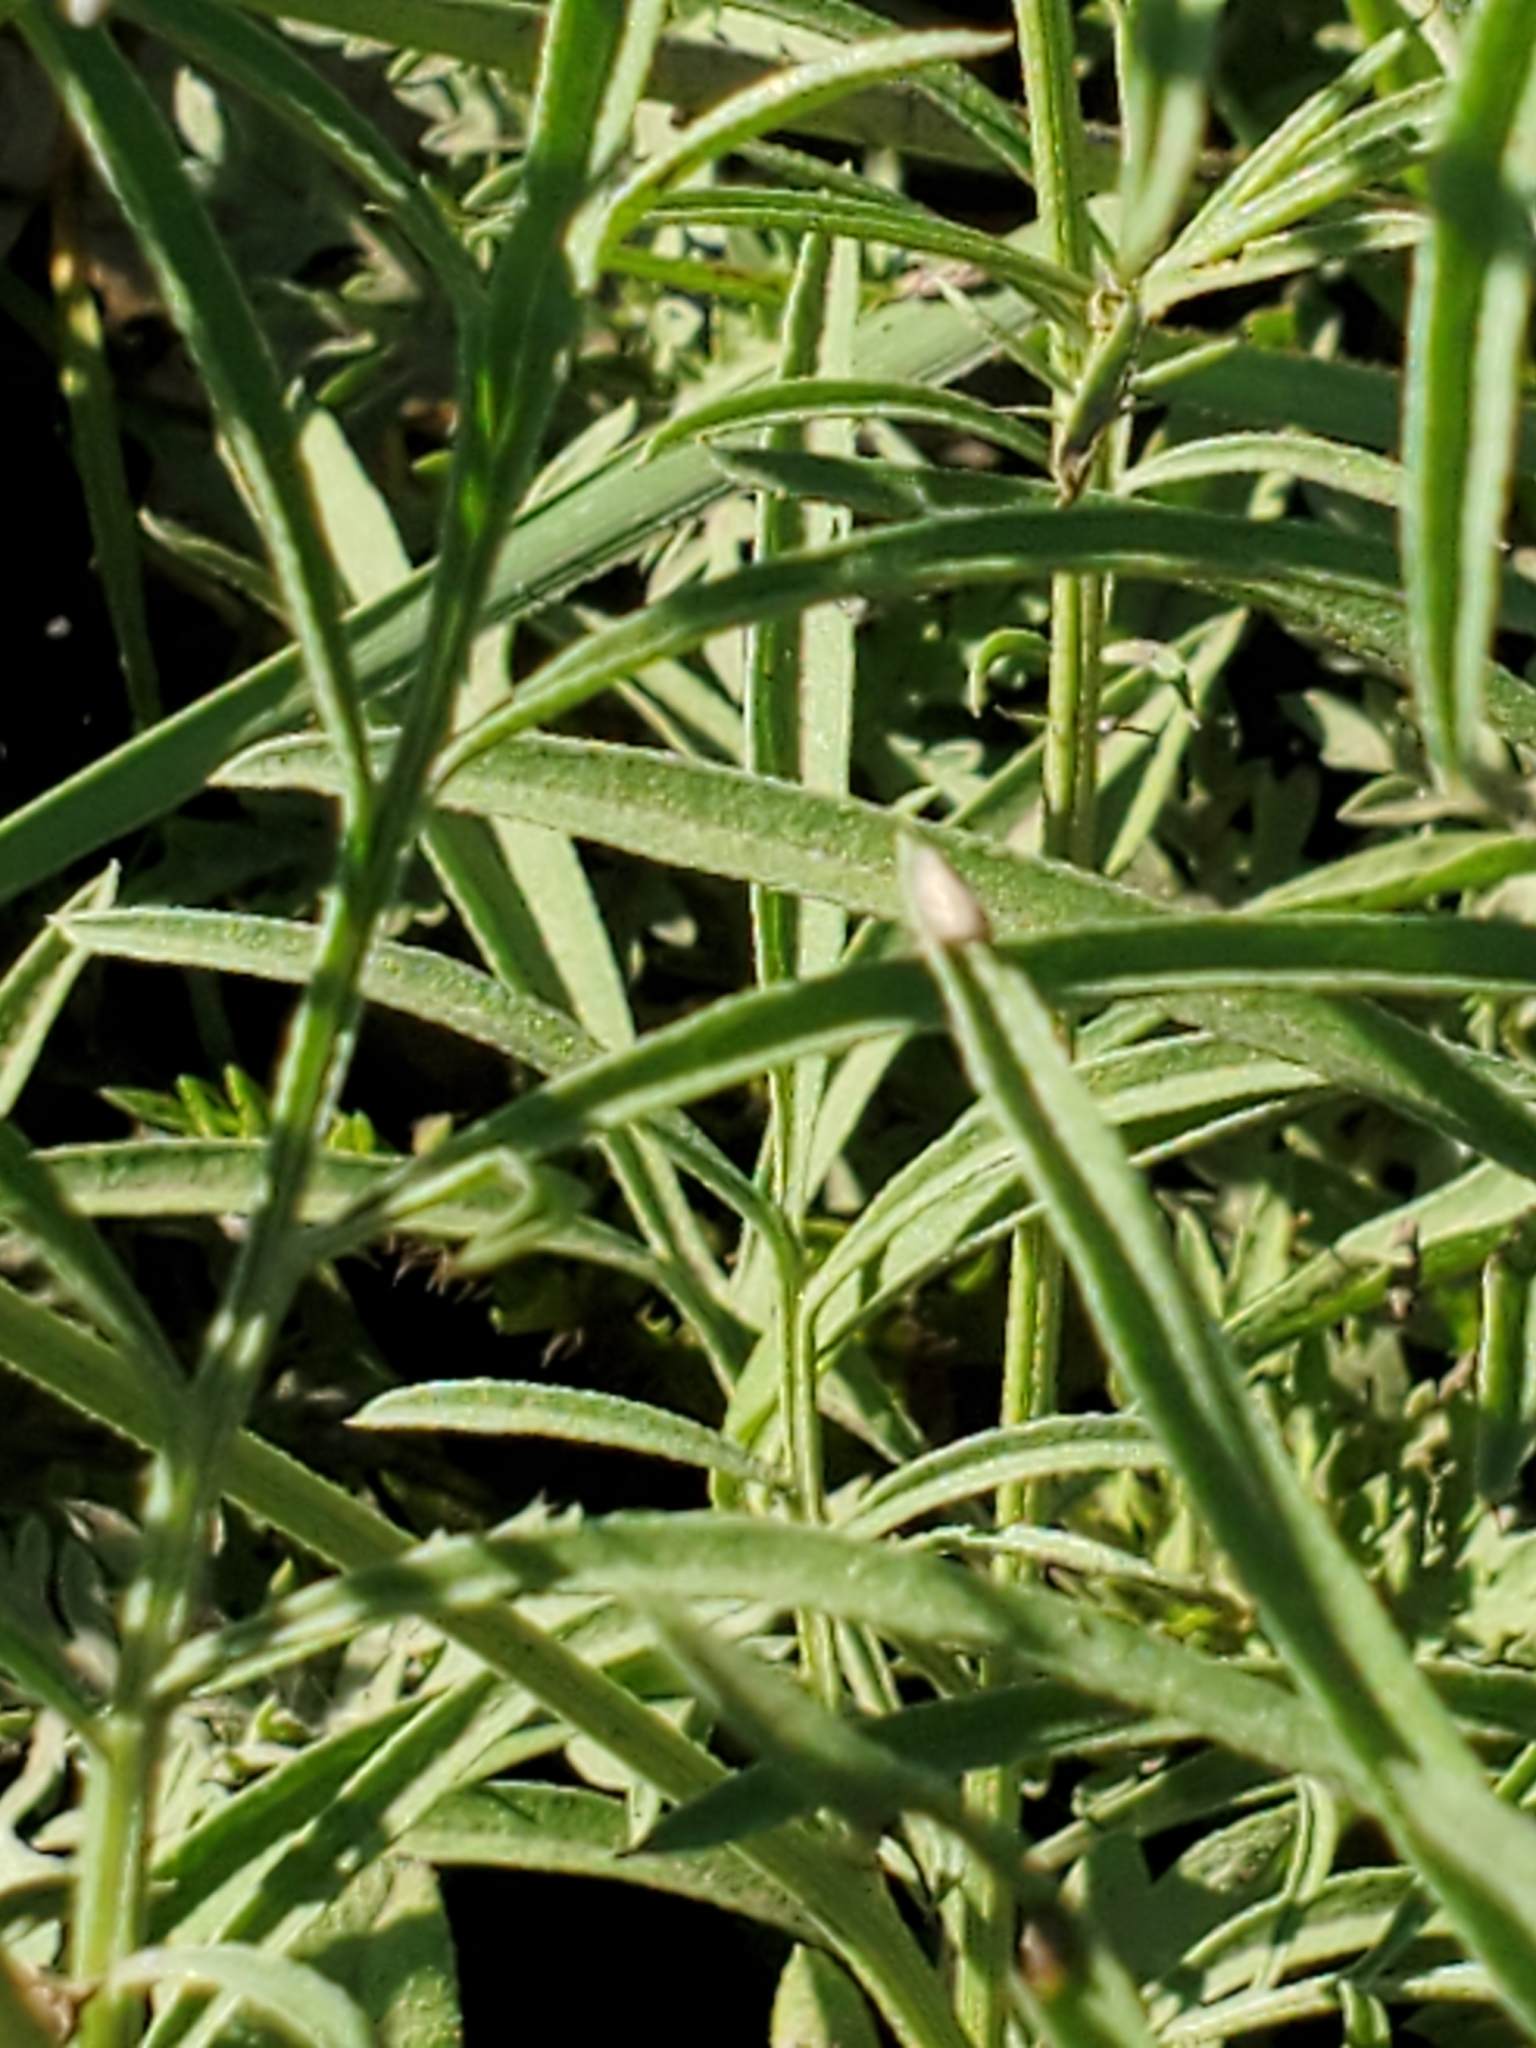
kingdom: Plantae
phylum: Tracheophyta
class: Magnoliopsida
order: Asterales
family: Asteraceae
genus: Ratibida
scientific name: Ratibida columnifera
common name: Prairie coneflower
